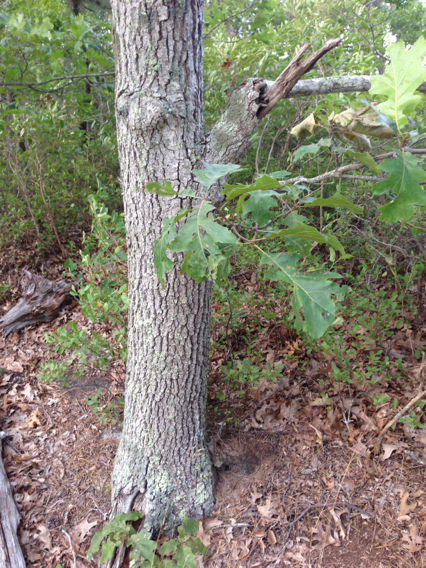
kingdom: Plantae
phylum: Tracheophyta
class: Magnoliopsida
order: Fagales
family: Fagaceae
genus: Quercus
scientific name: Quercus velutina
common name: Black oak
